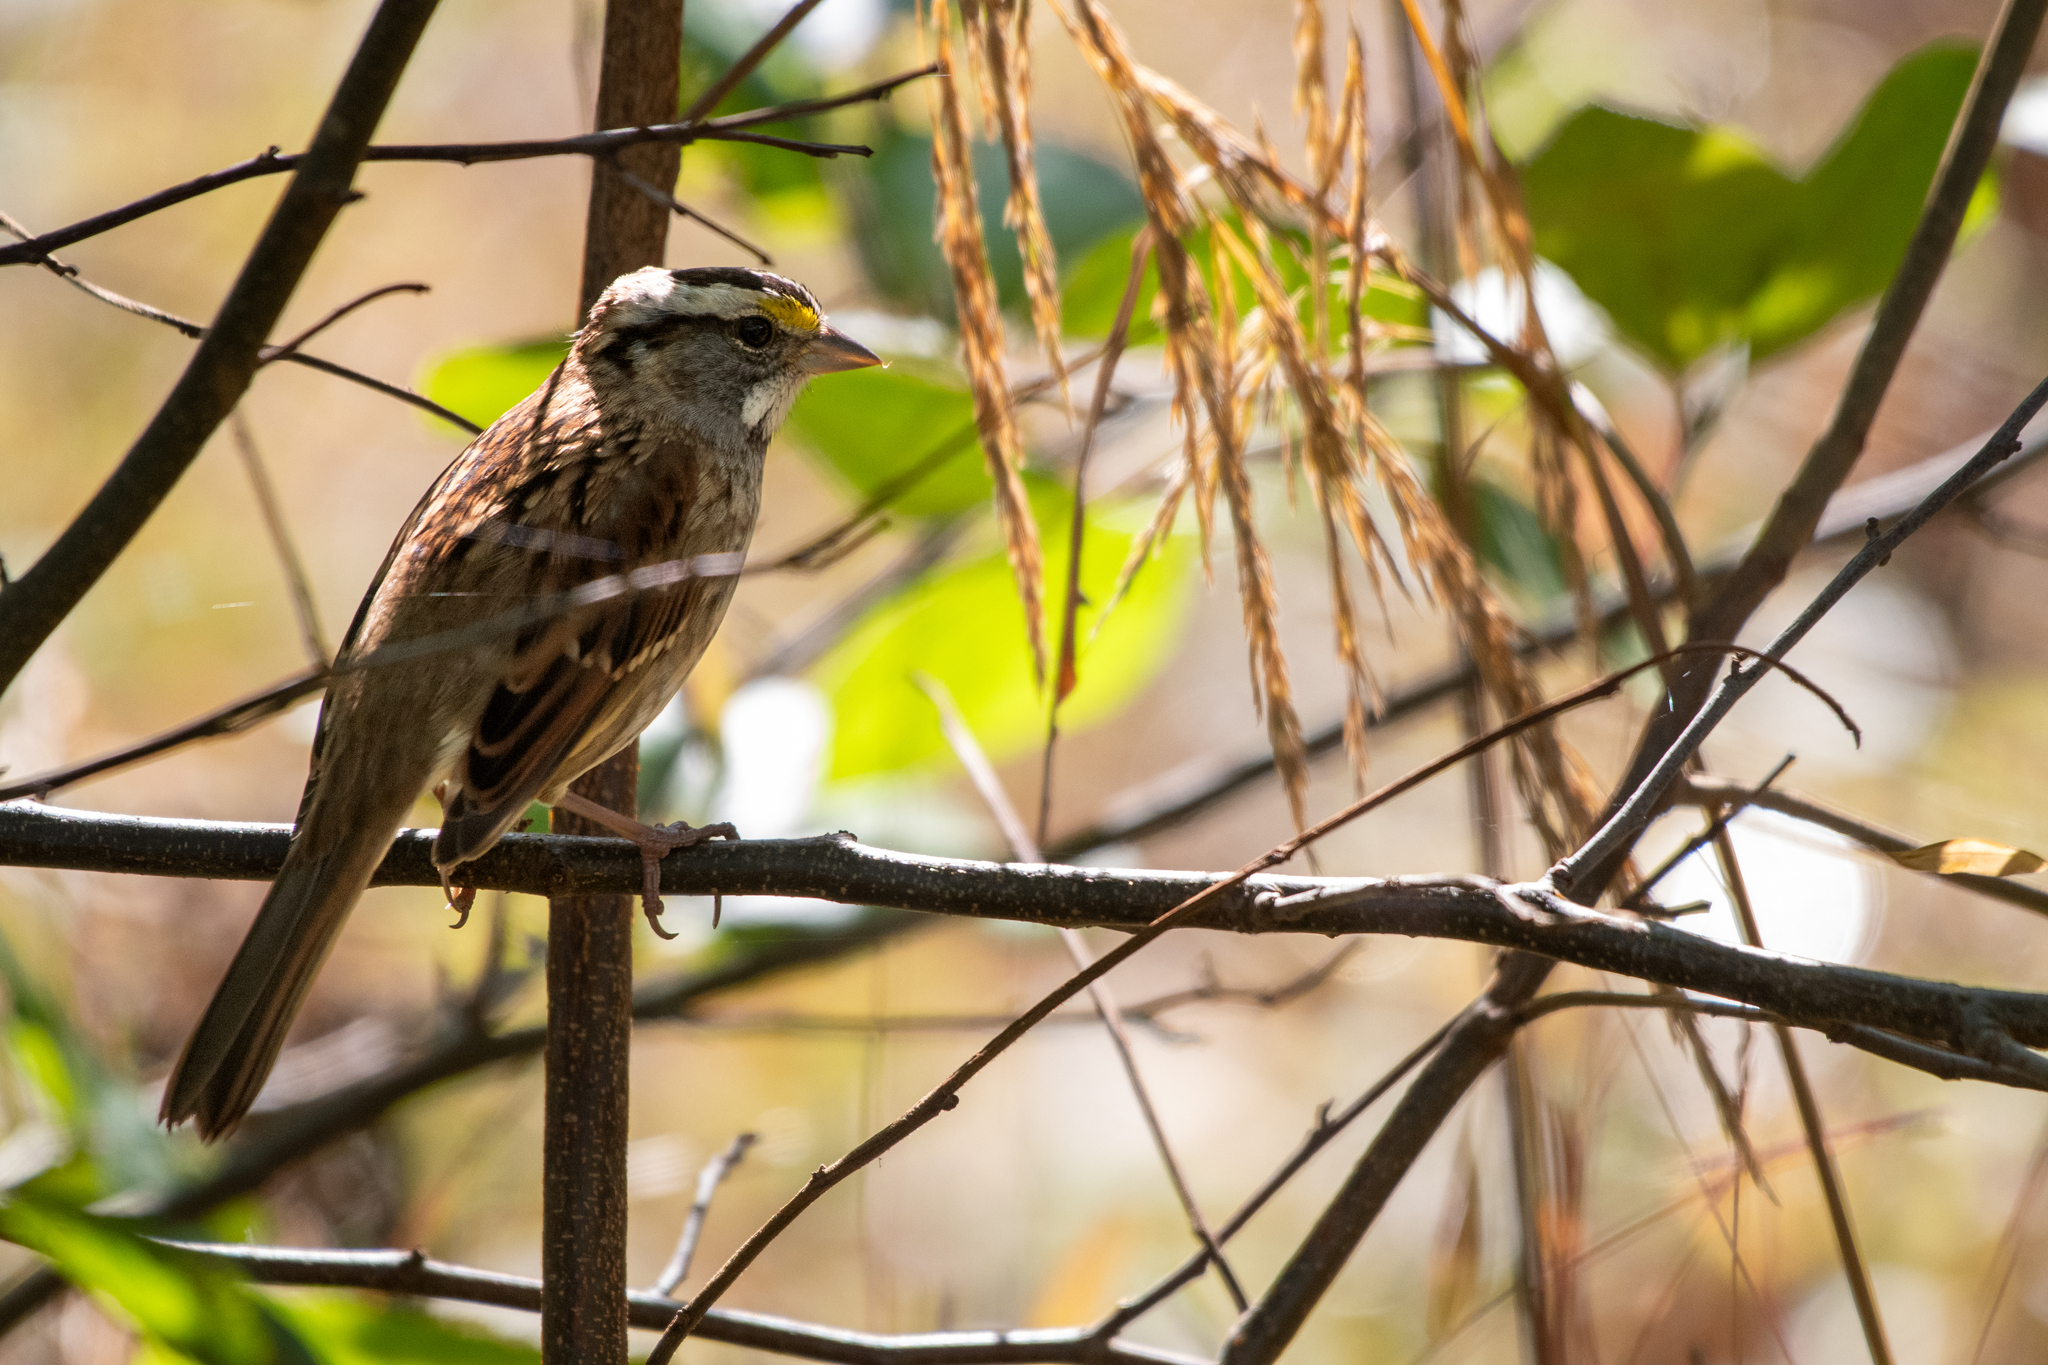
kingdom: Animalia
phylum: Chordata
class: Aves
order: Passeriformes
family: Passerellidae
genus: Zonotrichia
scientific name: Zonotrichia albicollis
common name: White-throated sparrow
